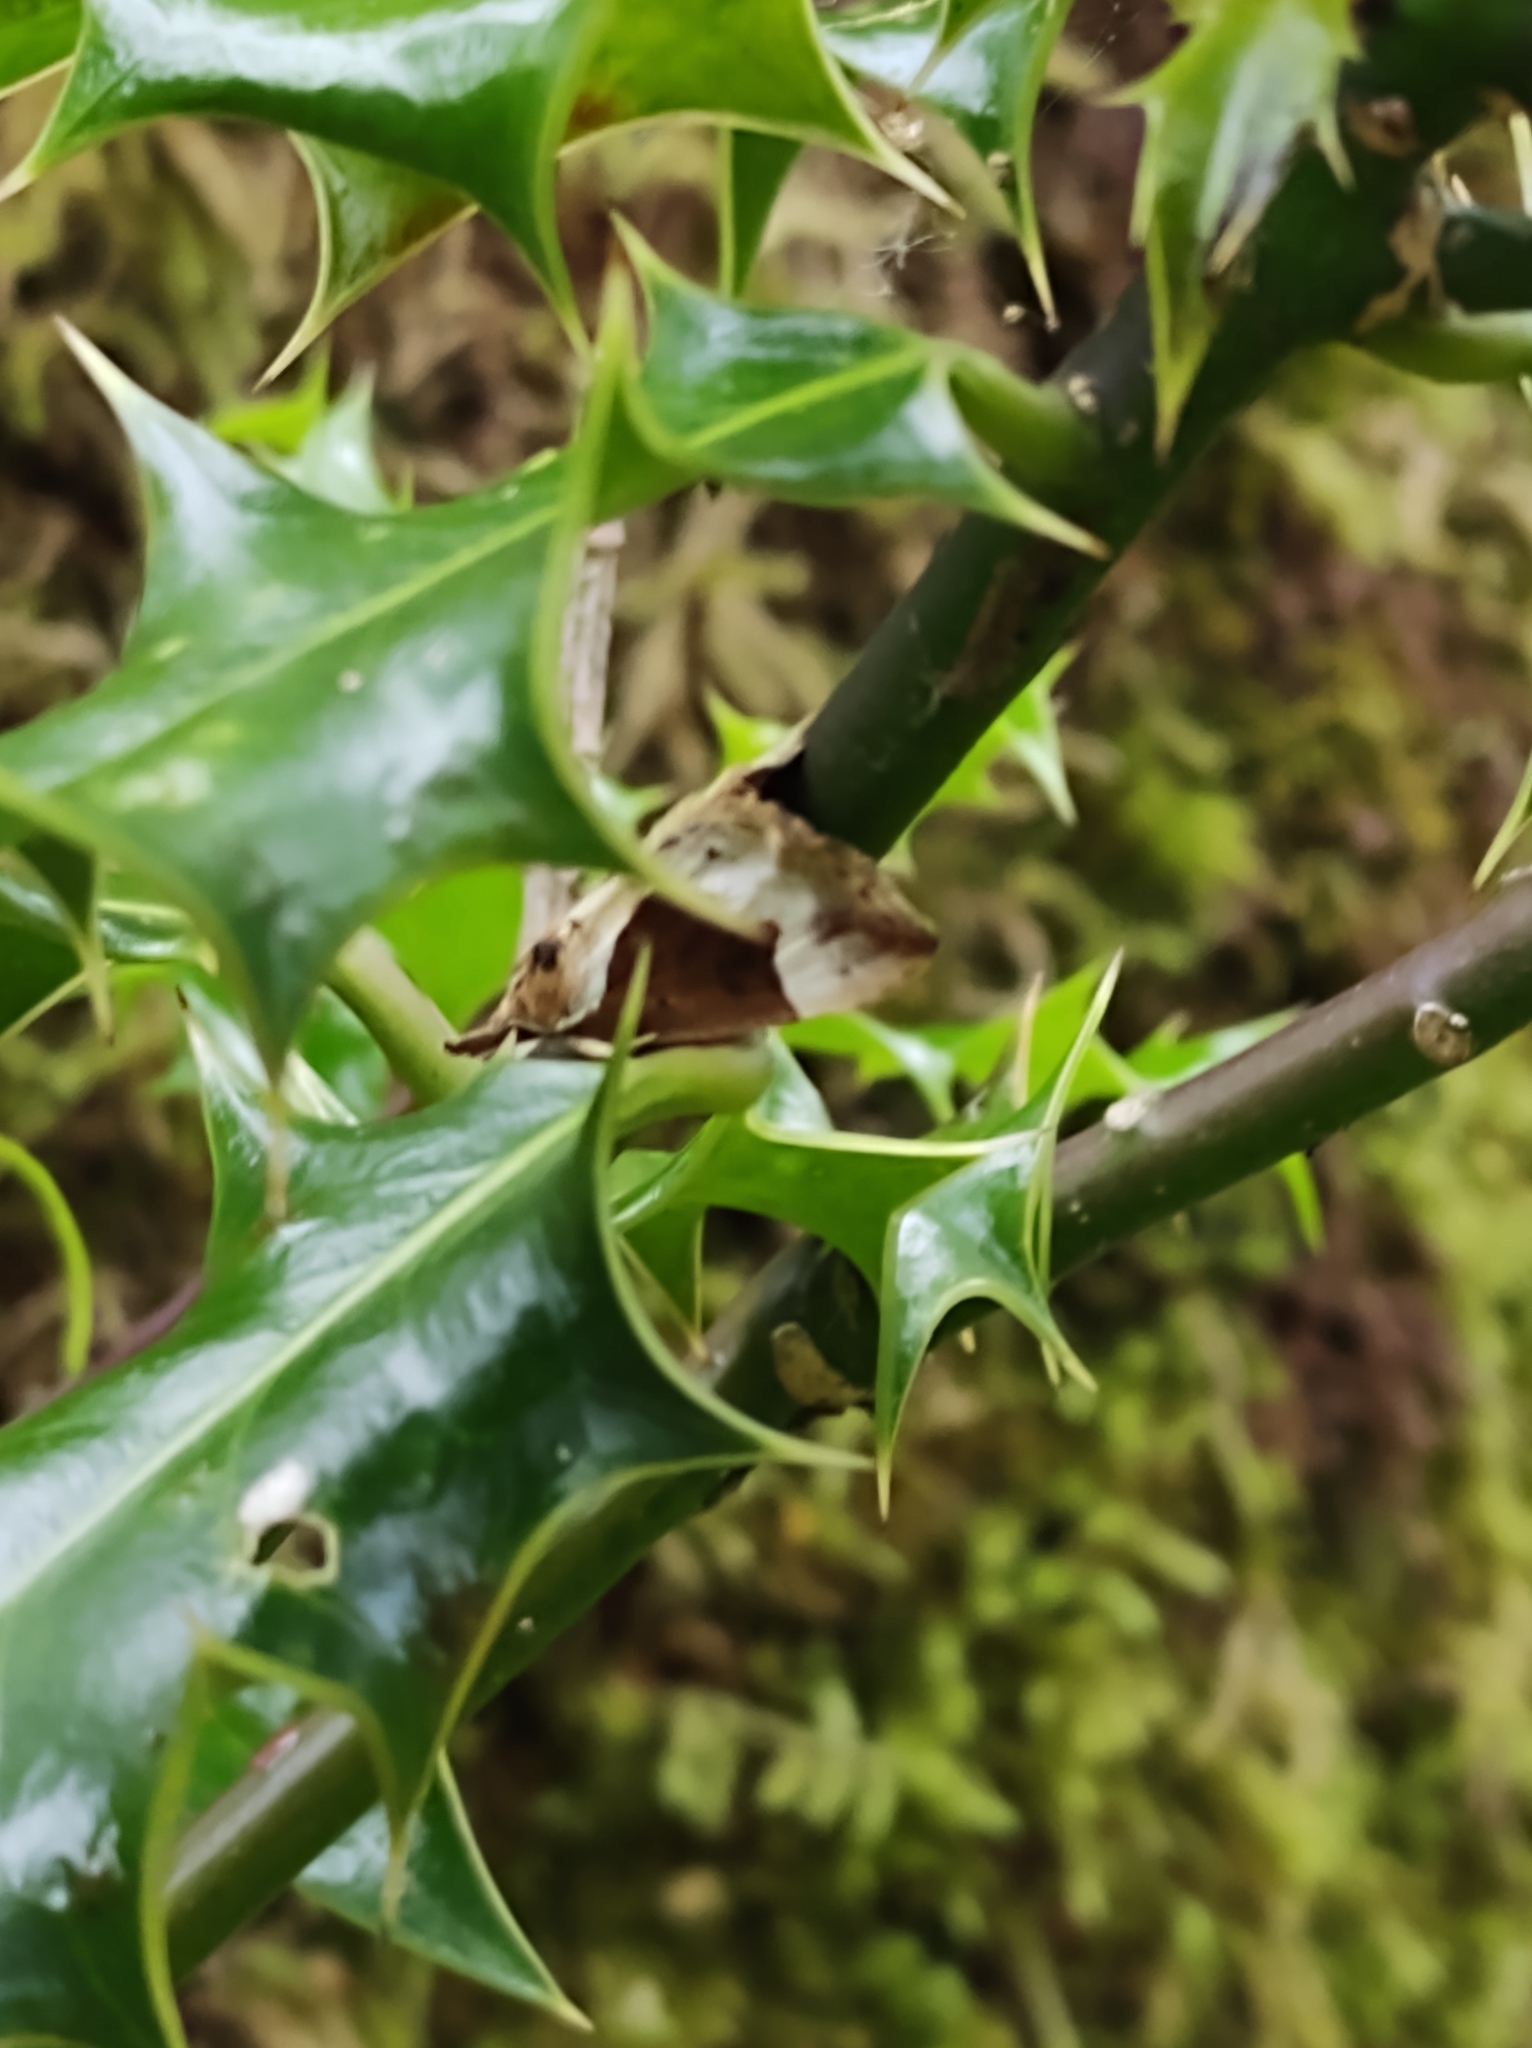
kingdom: Animalia
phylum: Arthropoda
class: Insecta
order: Lepidoptera
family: Erebidae
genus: Hypena
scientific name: Hypena crassalis
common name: Beautiful snout
